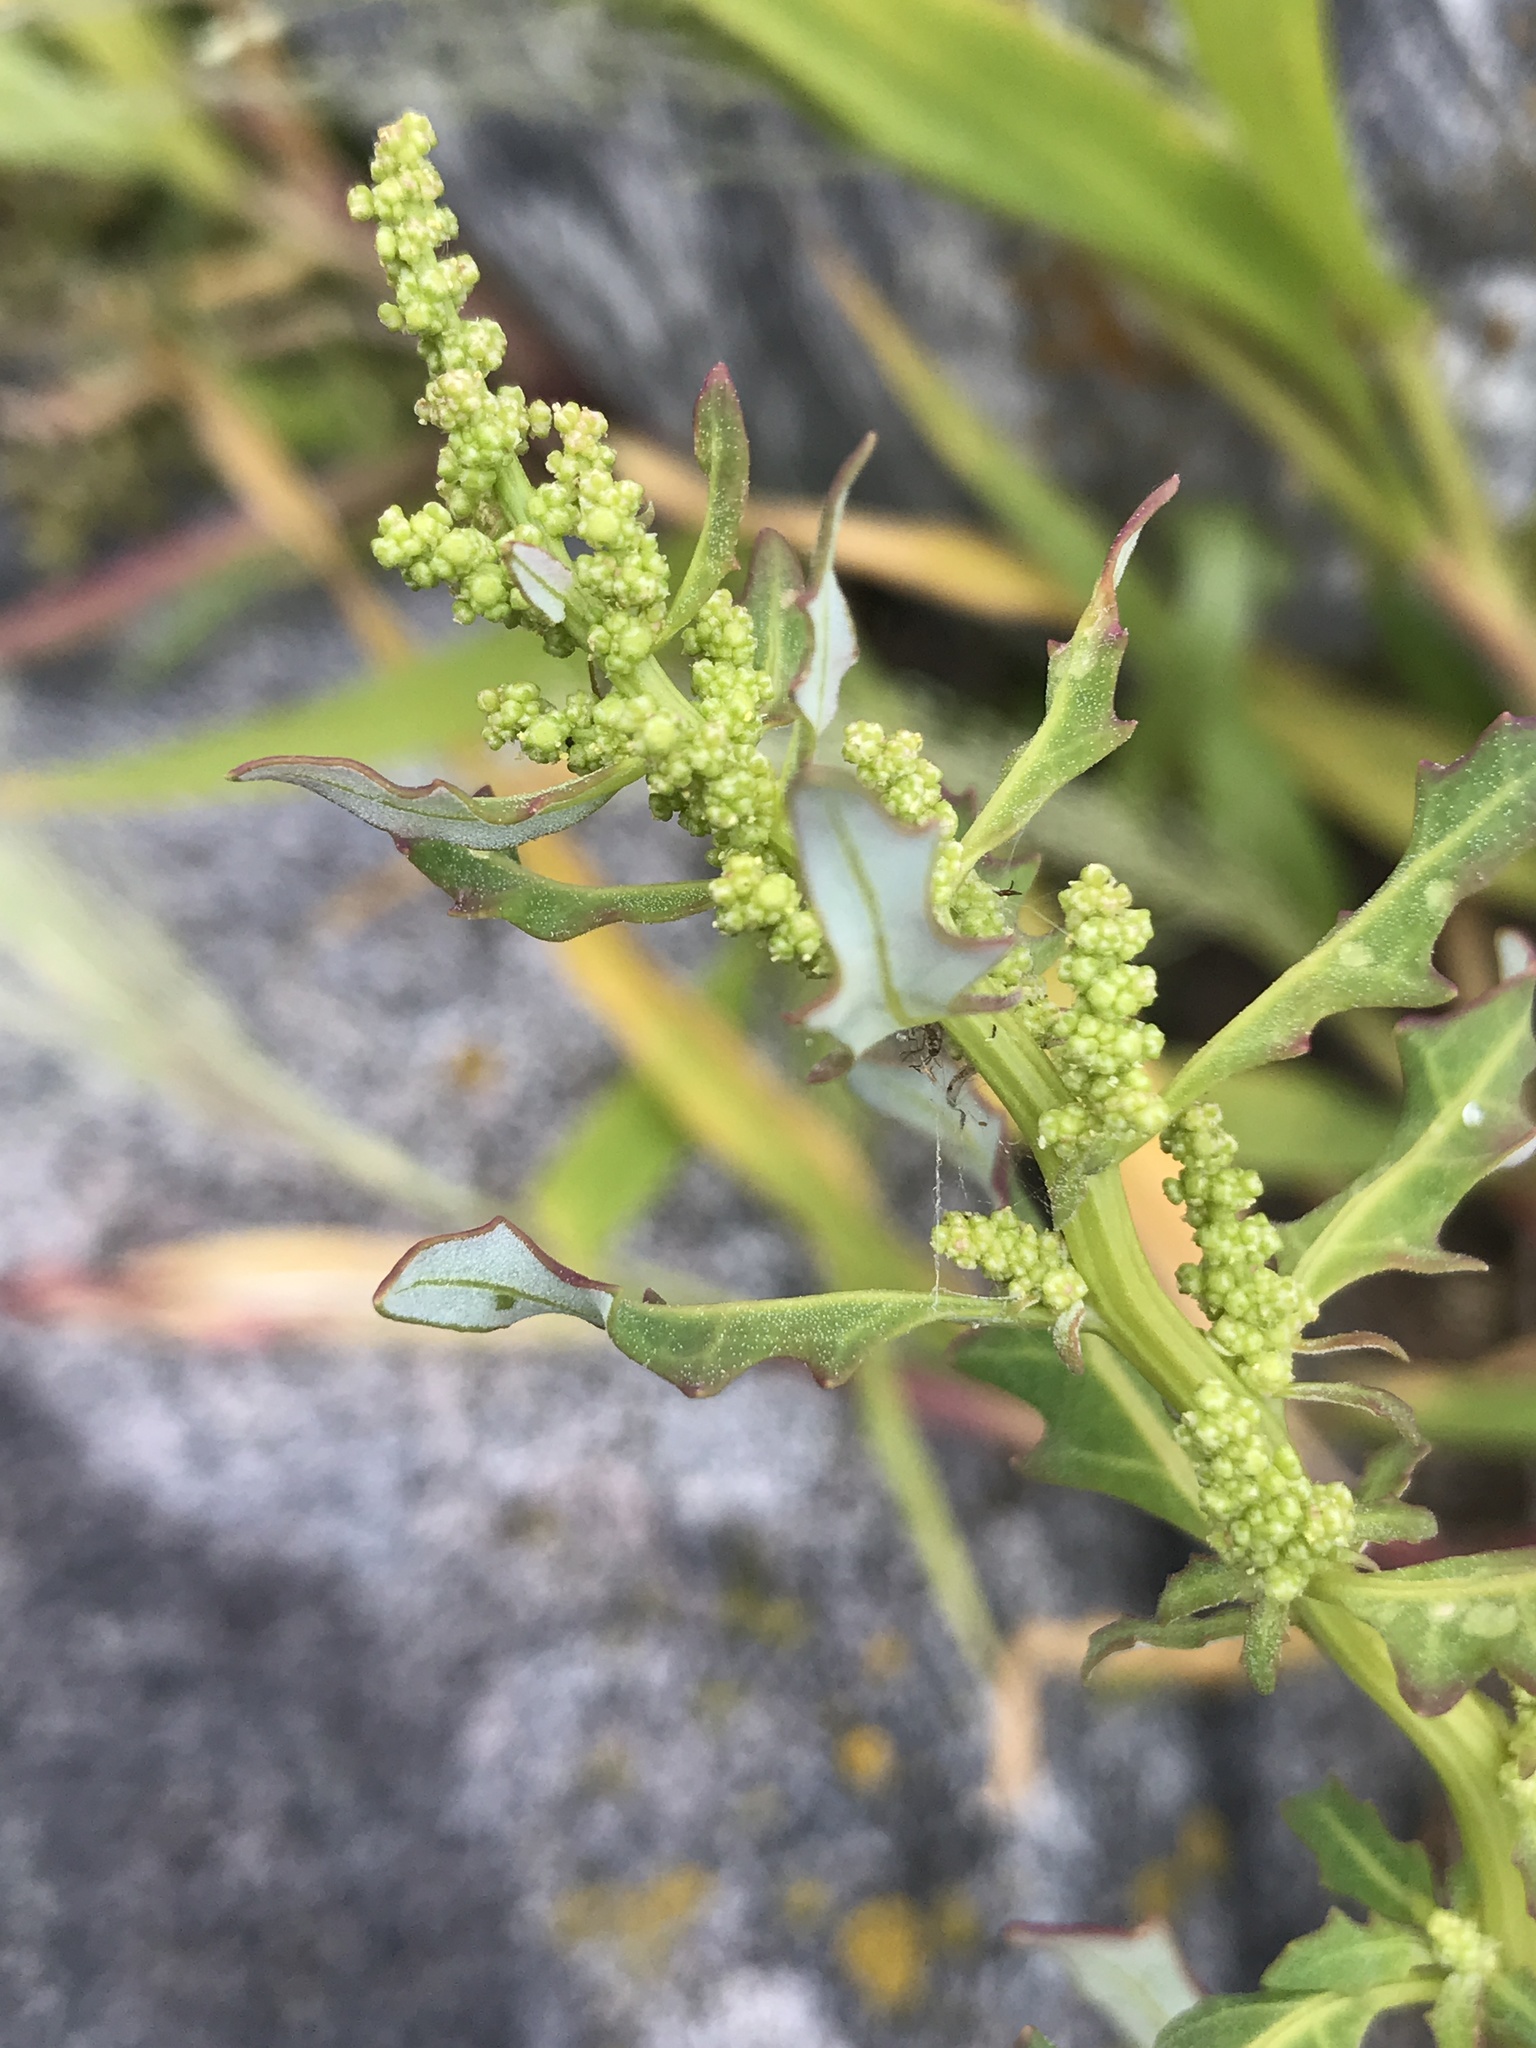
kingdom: Plantae
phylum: Tracheophyta
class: Magnoliopsida
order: Caryophyllales
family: Amaranthaceae
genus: Oxybasis
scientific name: Oxybasis glauca
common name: Glaucous goosefoot
